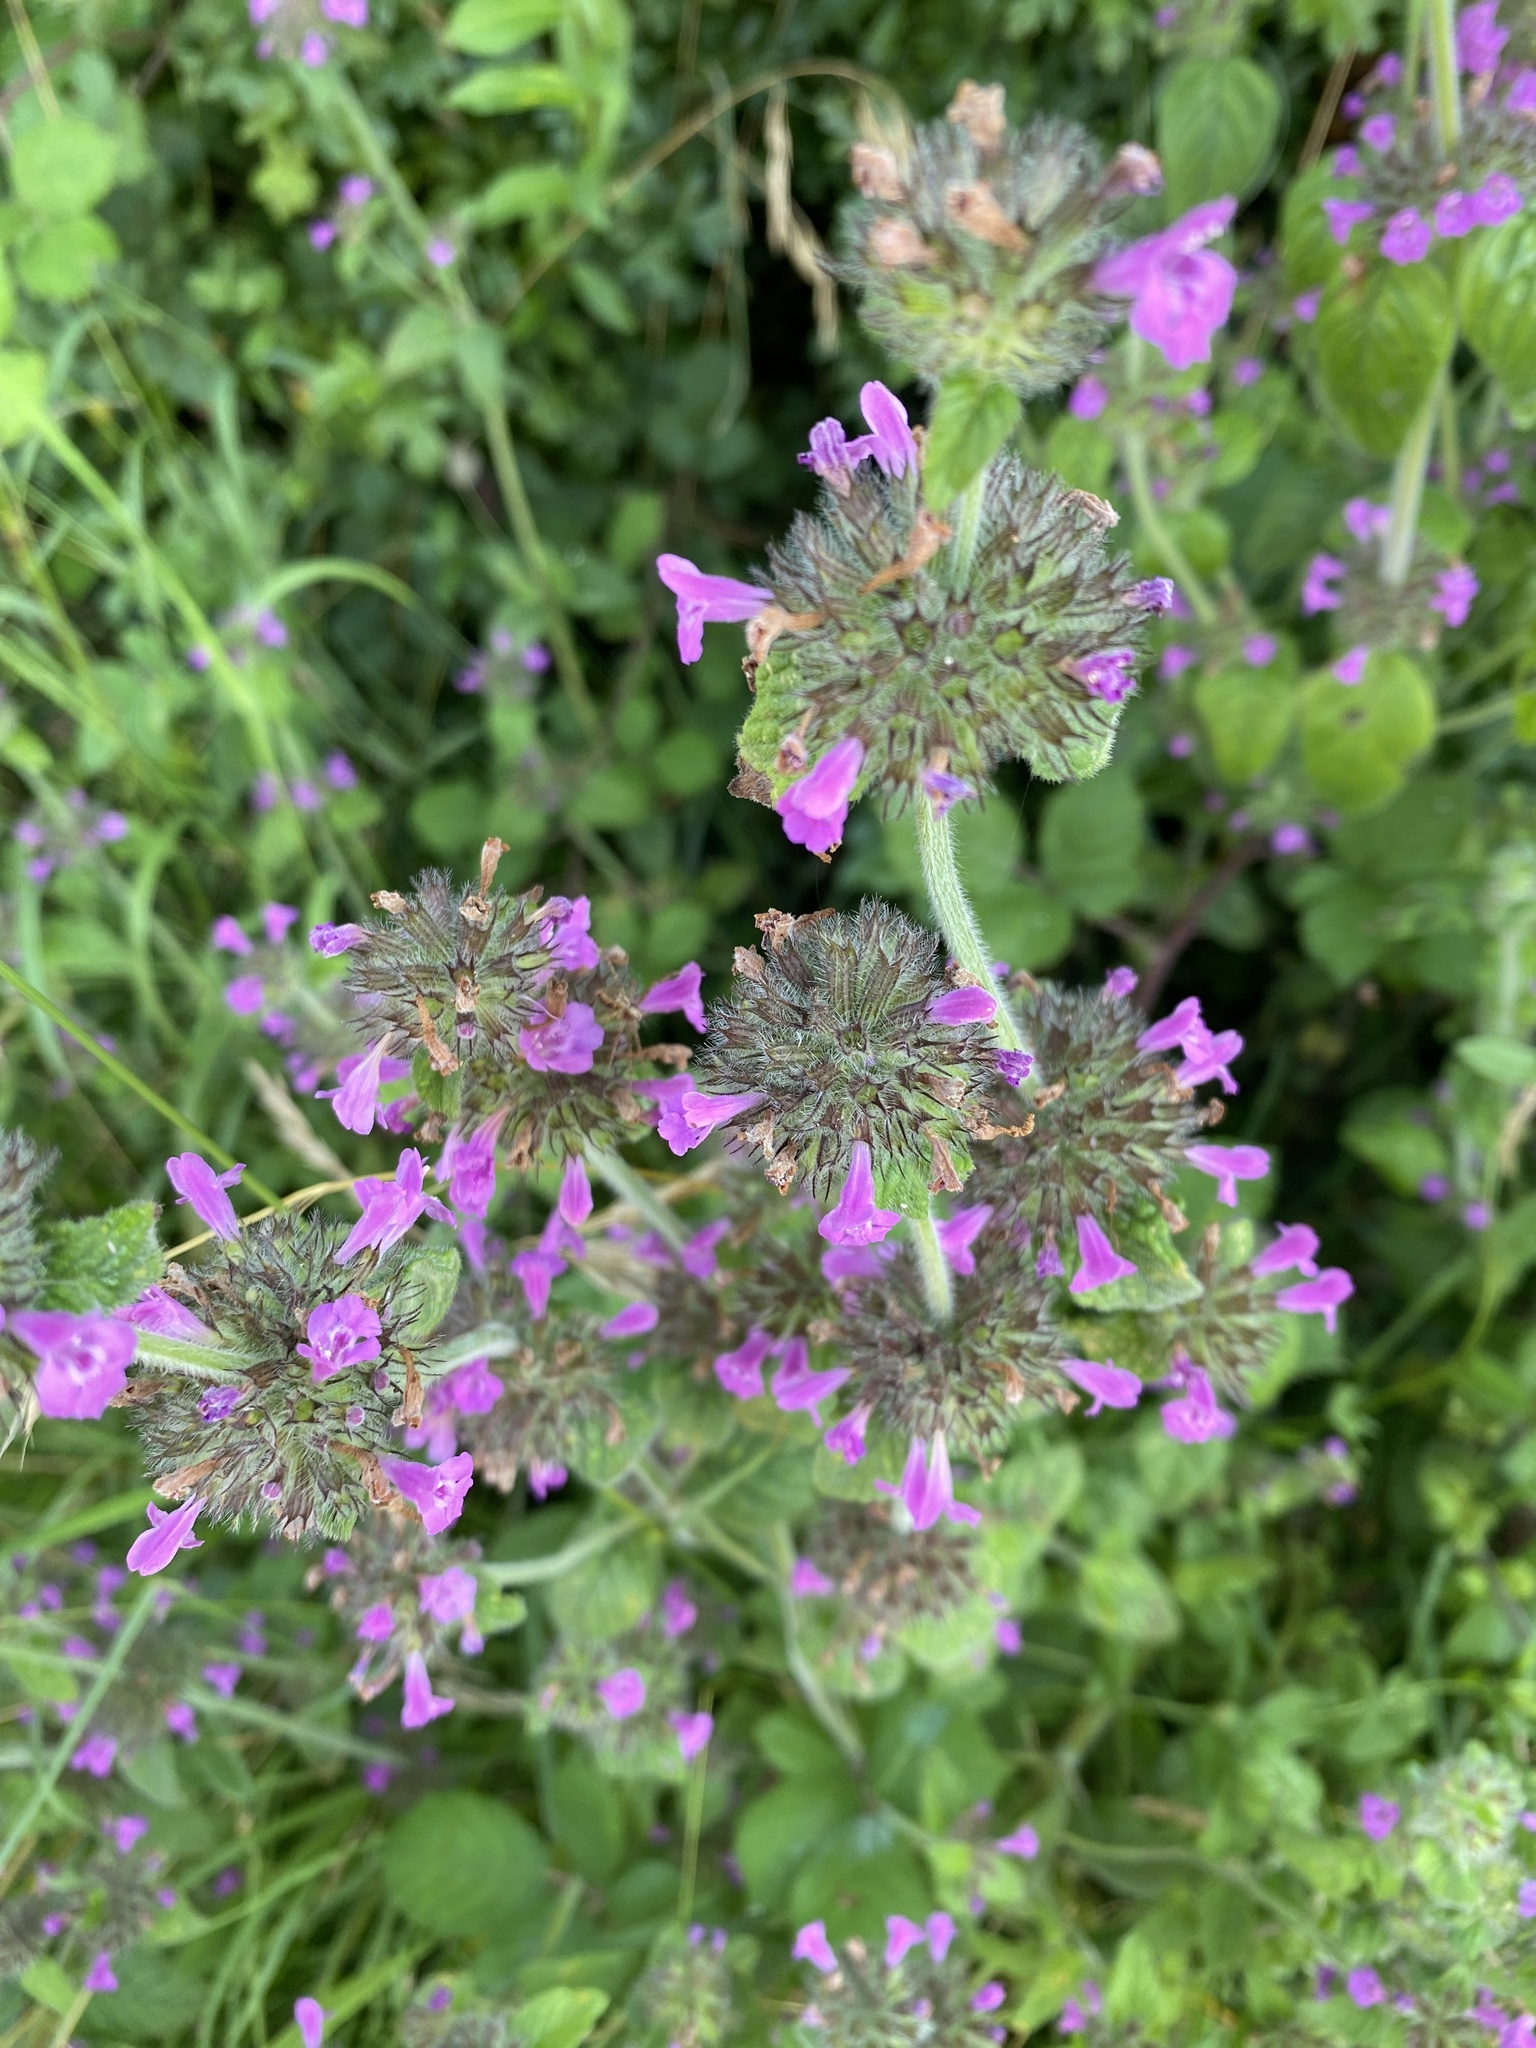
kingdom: Plantae
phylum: Tracheophyta
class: Magnoliopsida
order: Lamiales
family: Lamiaceae
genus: Clinopodium
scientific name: Clinopodium vulgare
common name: Wild basil
